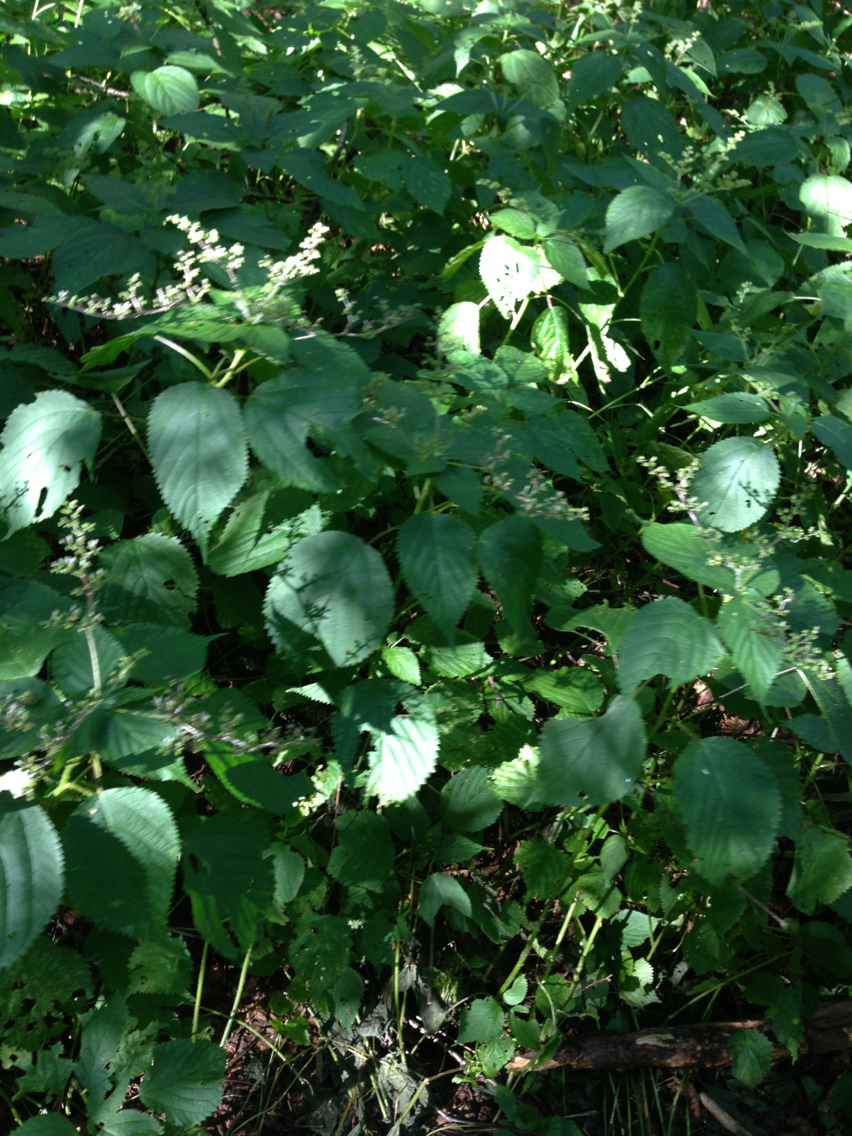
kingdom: Plantae
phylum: Tracheophyta
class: Magnoliopsida
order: Rosales
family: Urticaceae
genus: Laportea
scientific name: Laportea canadensis
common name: Canada nettle
